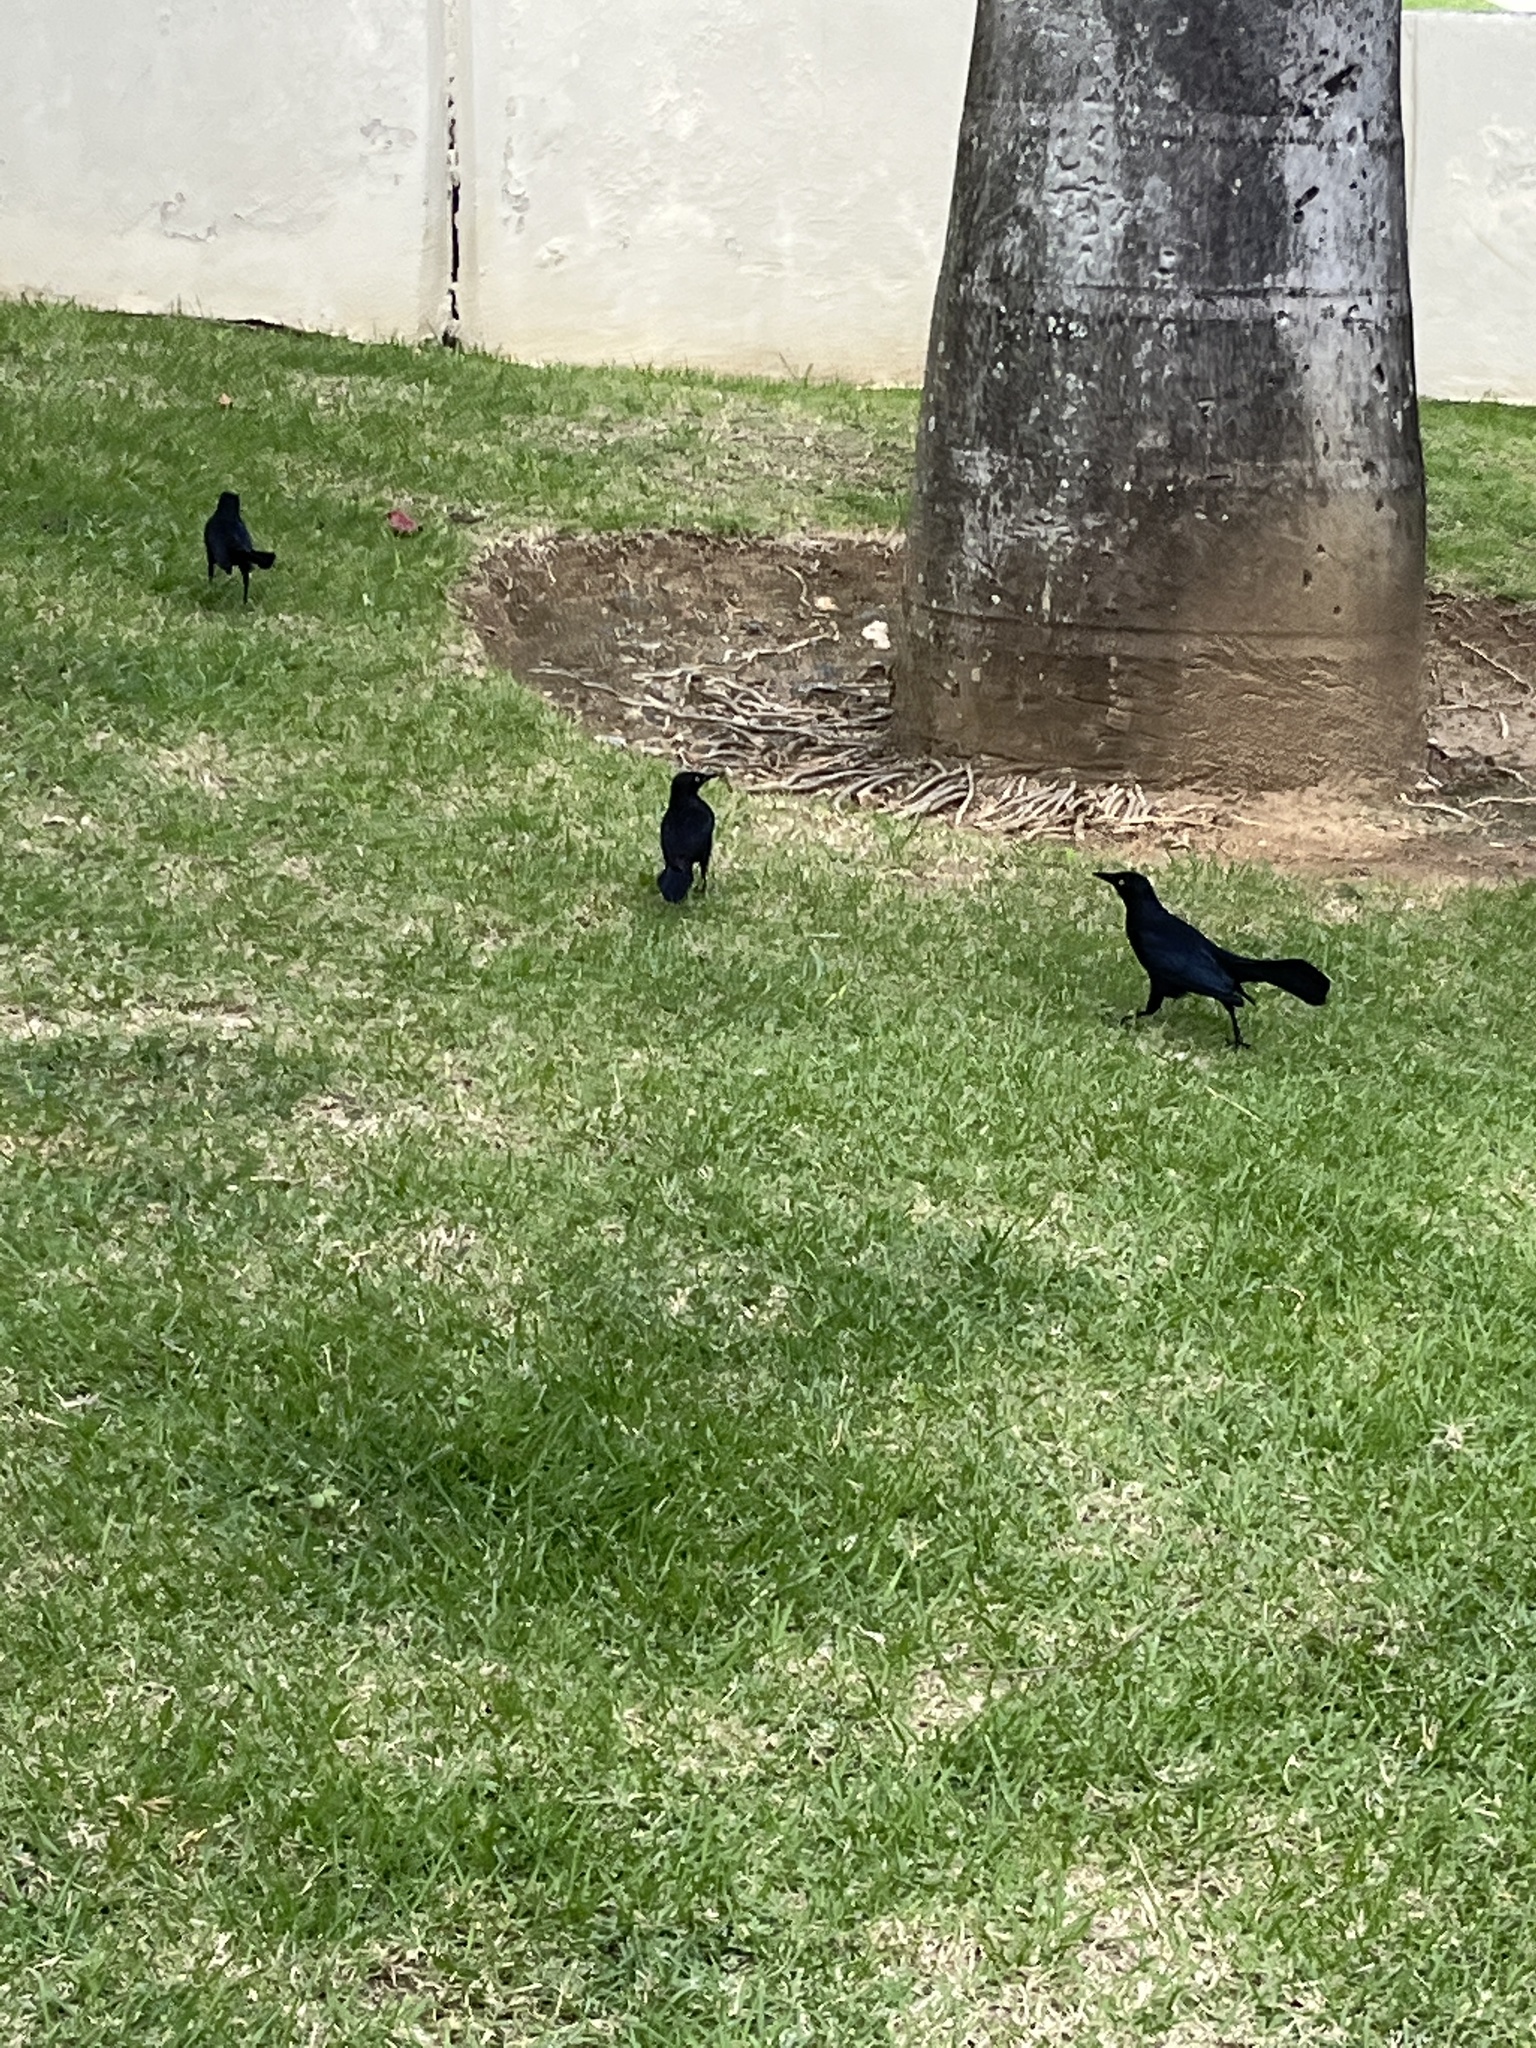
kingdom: Animalia
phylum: Chordata
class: Aves
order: Passeriformes
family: Icteridae
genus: Quiscalus
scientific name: Quiscalus niger
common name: Greater antillean grackle
